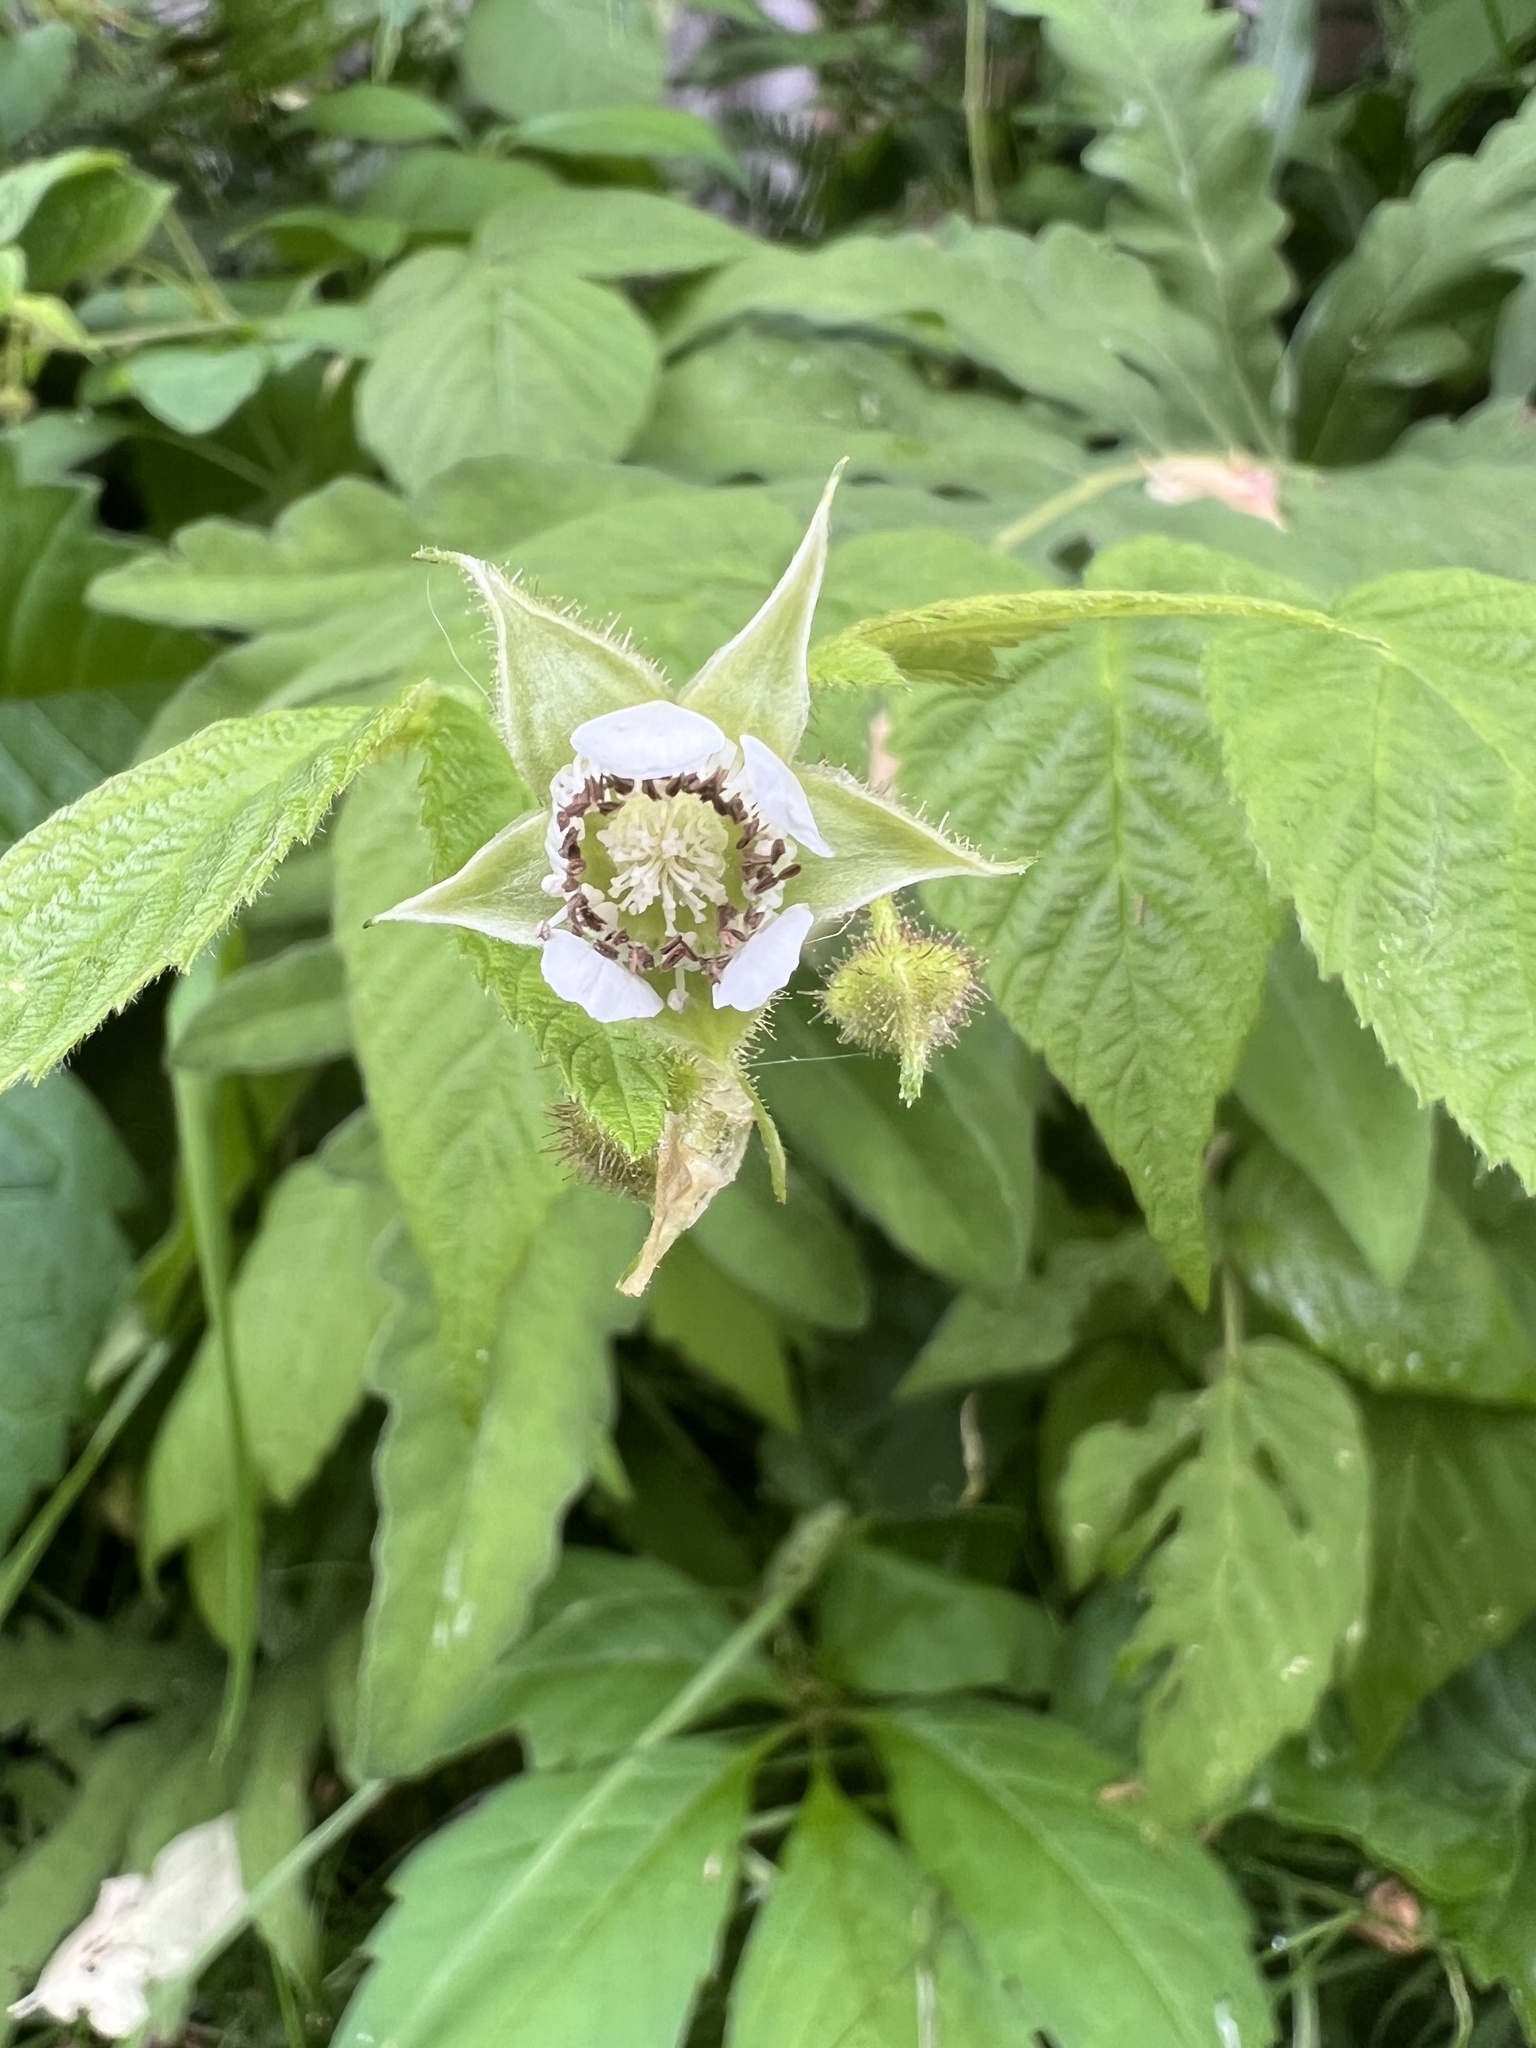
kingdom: Plantae
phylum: Tracheophyta
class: Magnoliopsida
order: Rosales
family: Rosaceae
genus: Rubus
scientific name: Rubus idaeus
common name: Raspberry
